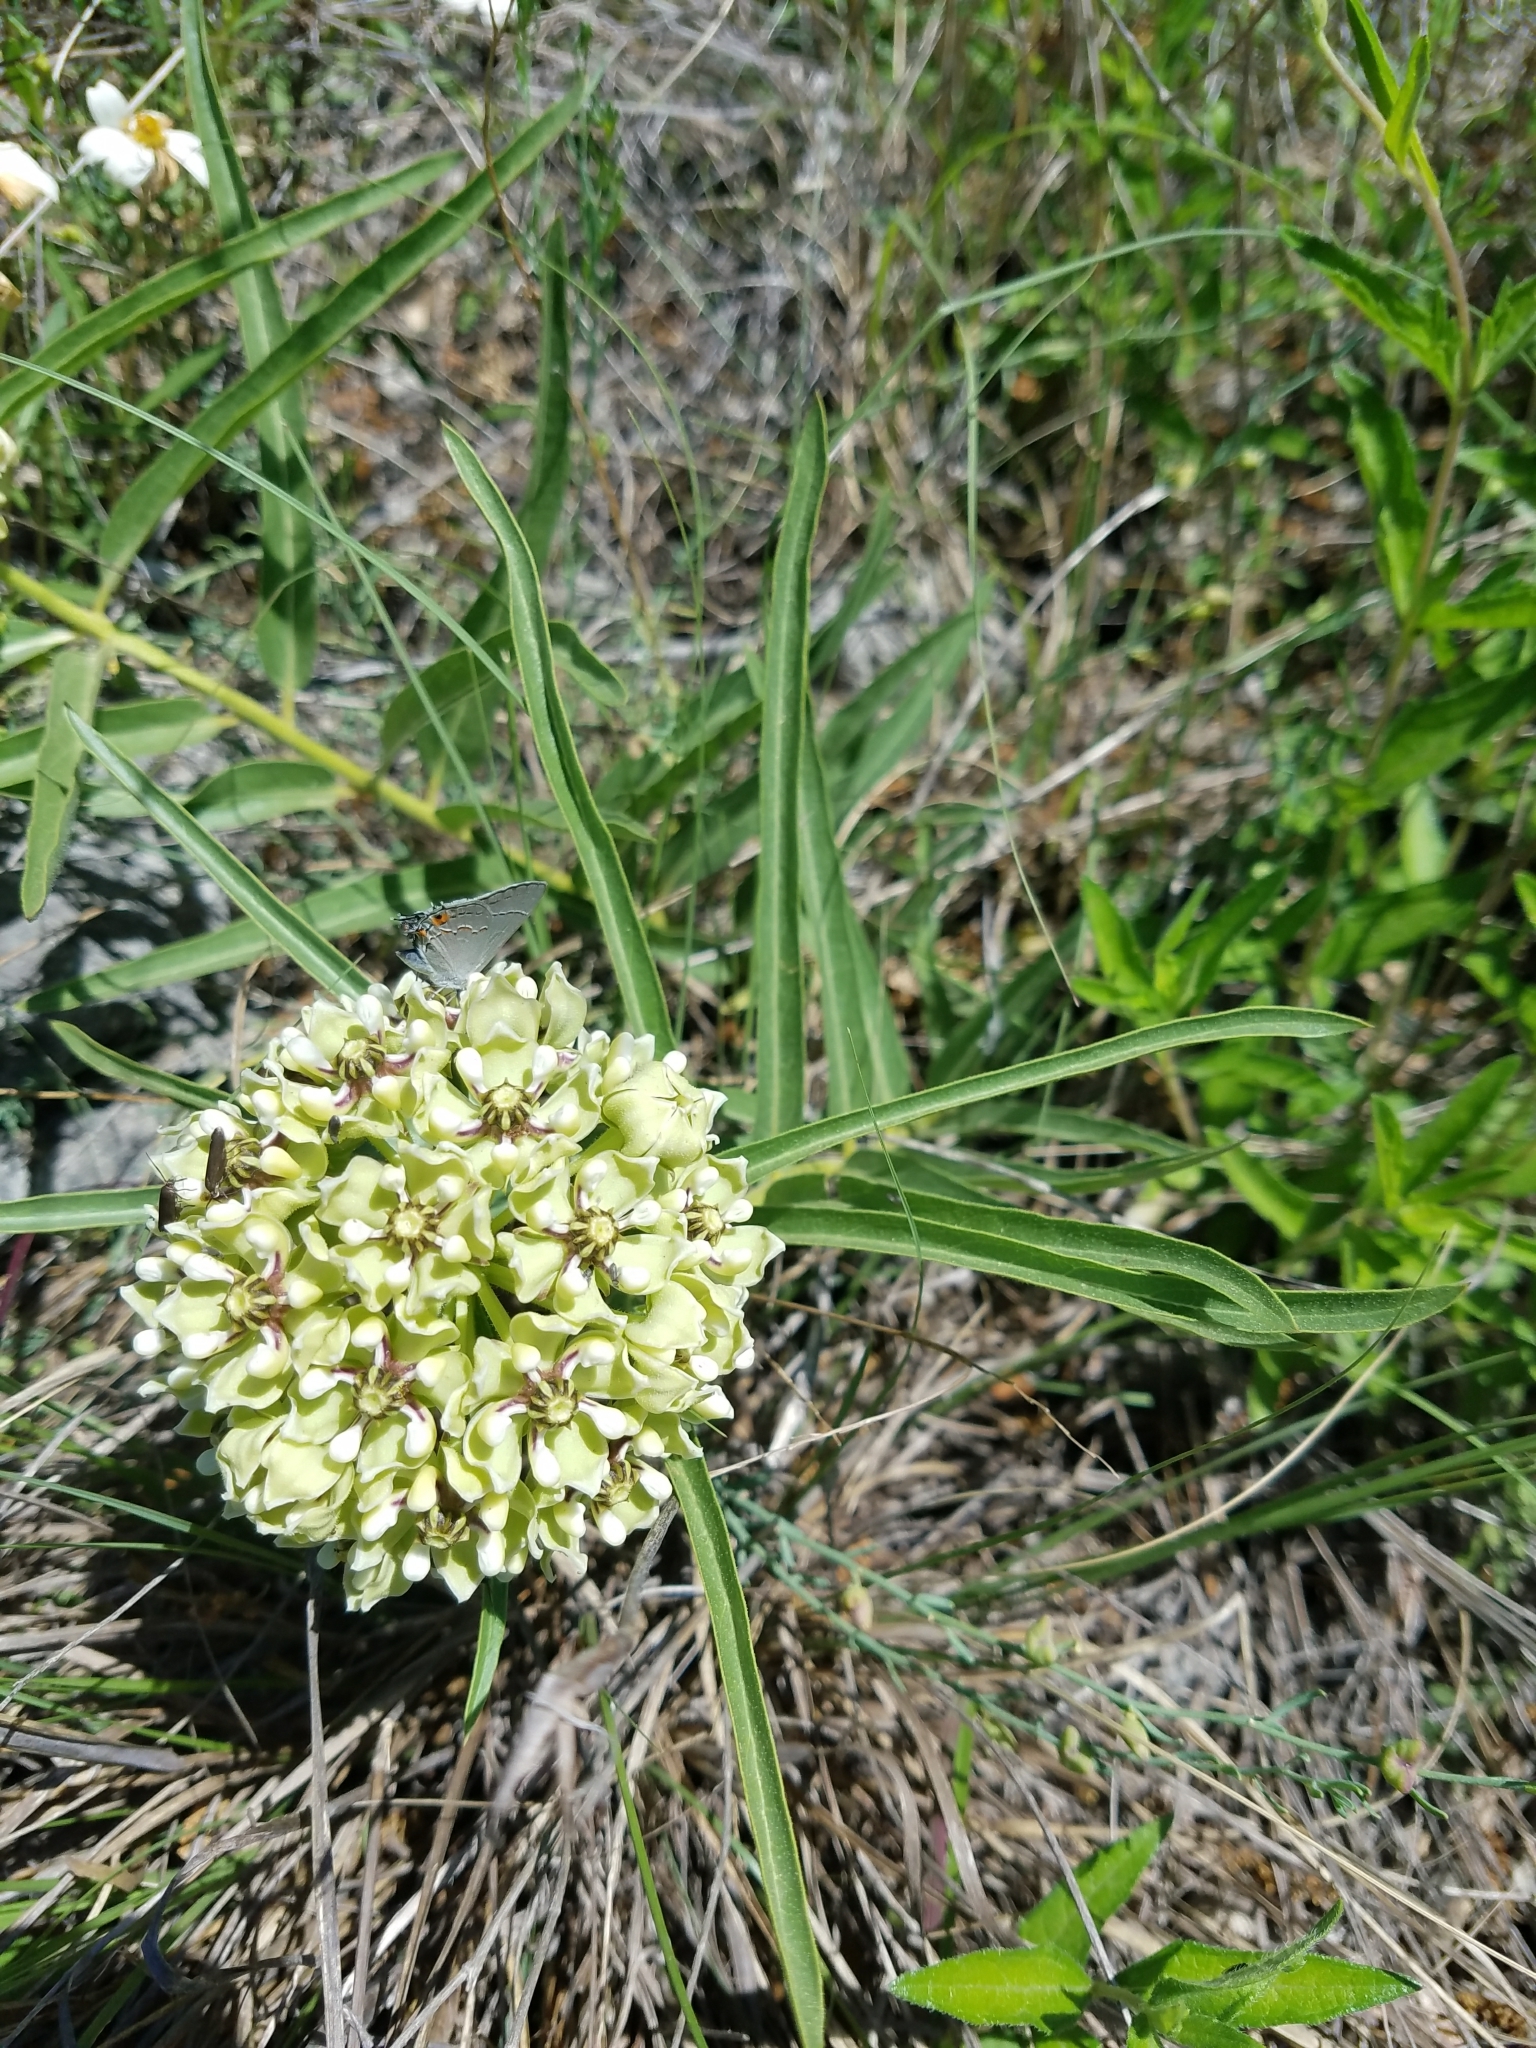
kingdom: Plantae
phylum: Tracheophyta
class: Magnoliopsida
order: Gentianales
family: Apocynaceae
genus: Asclepias
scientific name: Asclepias asperula
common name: Antelope horns
